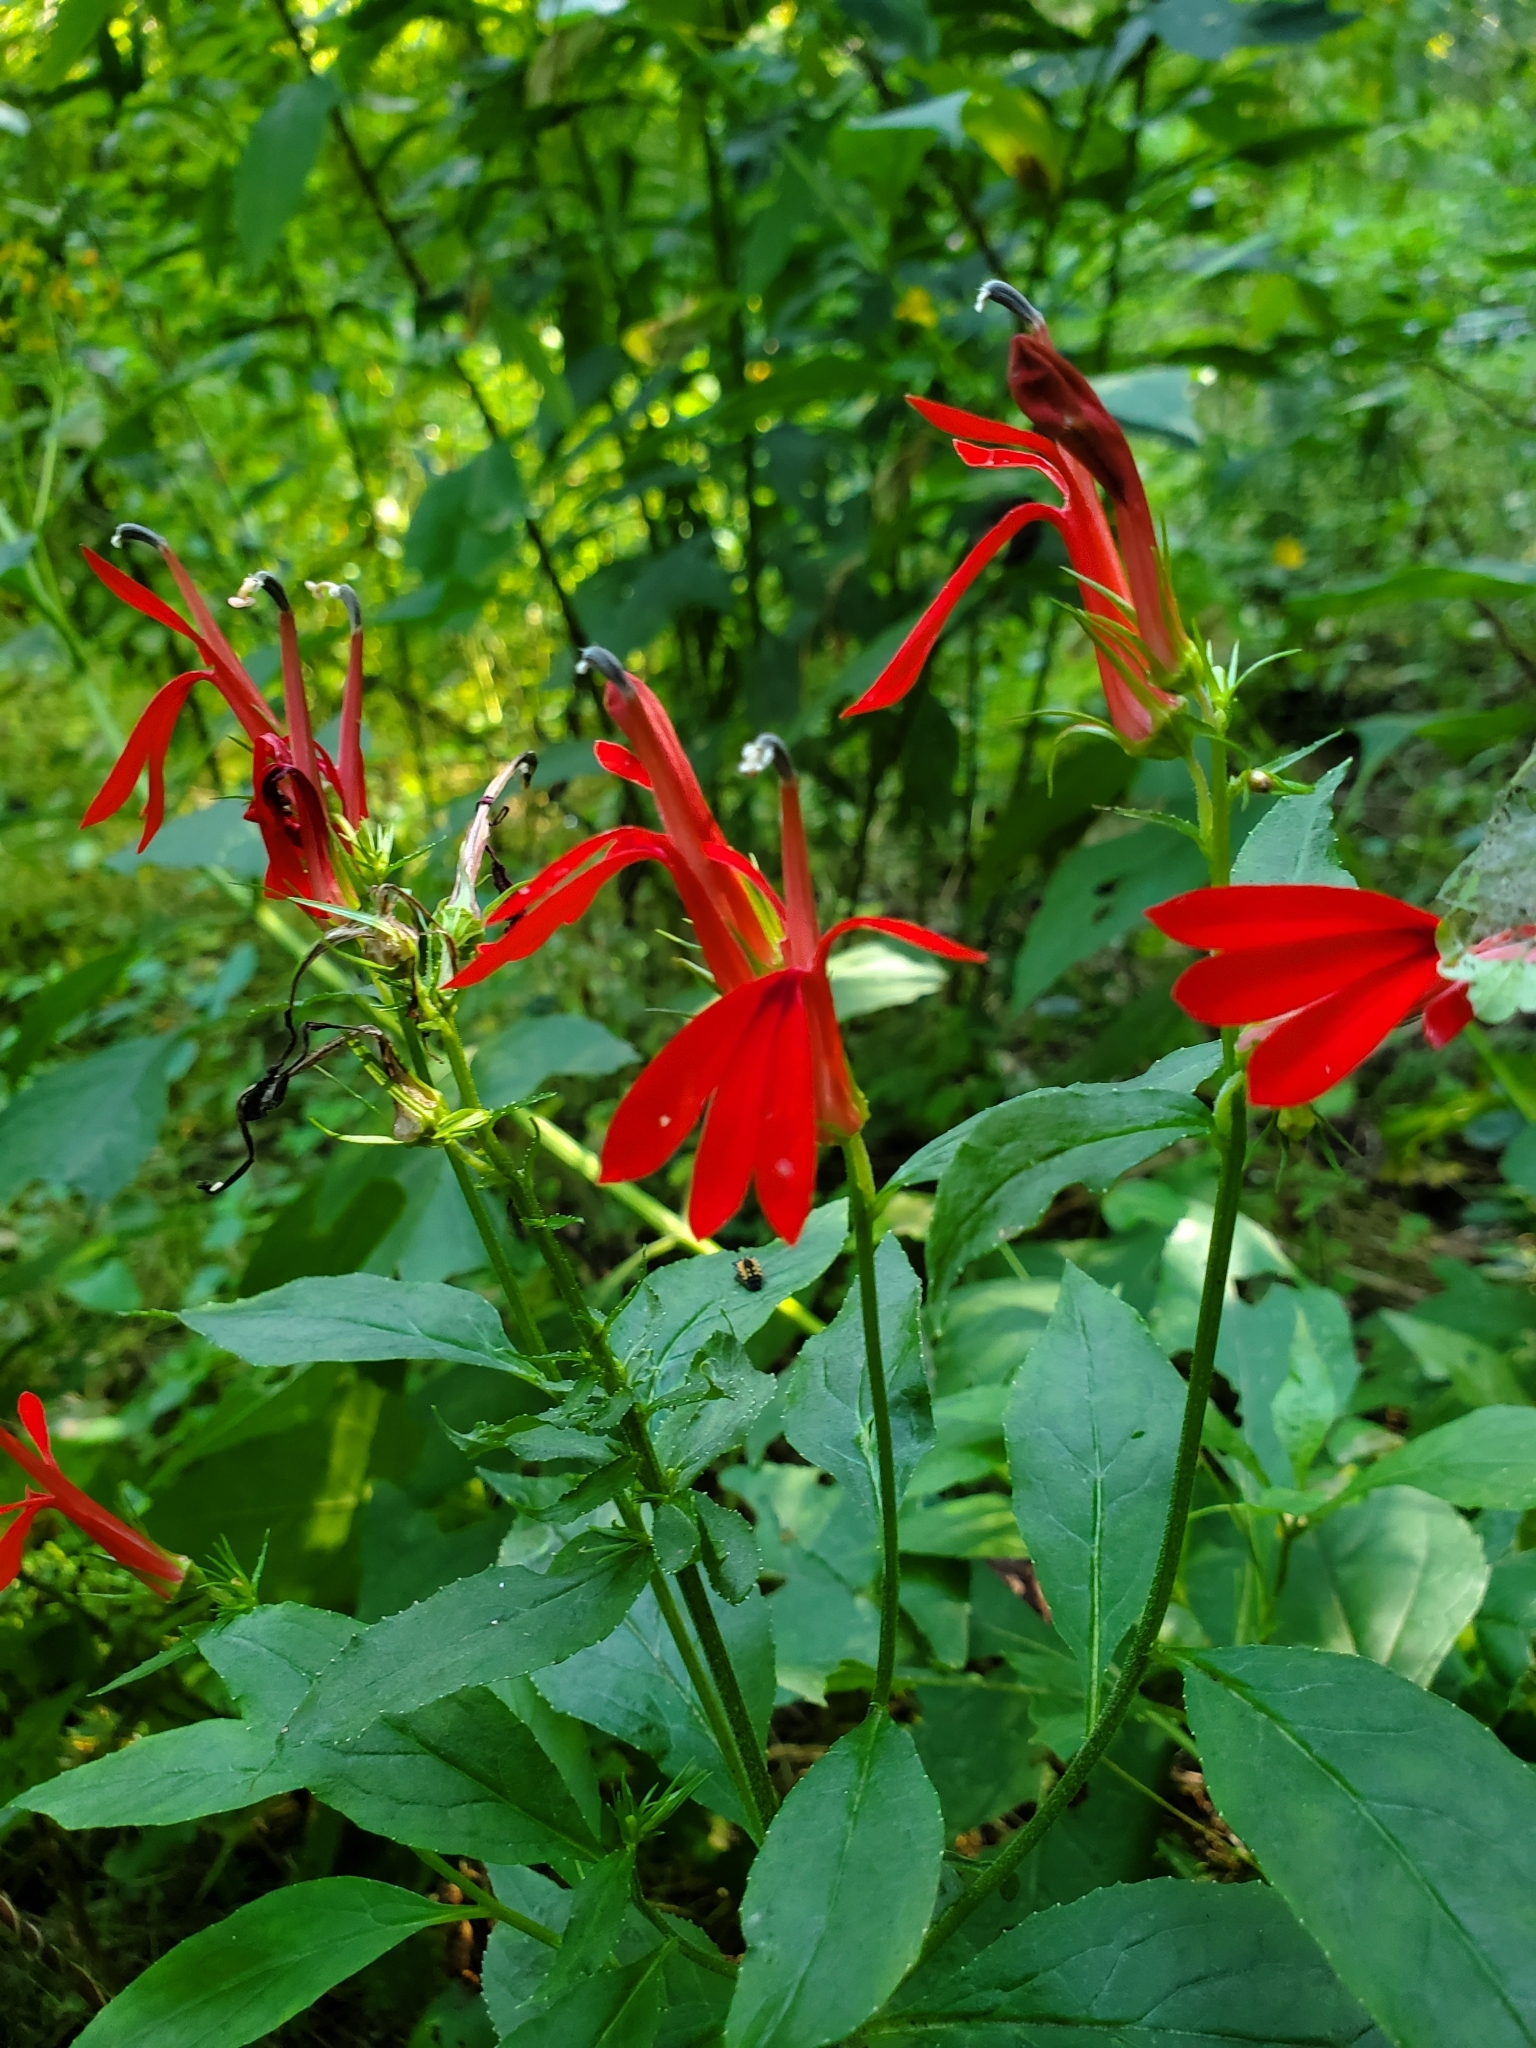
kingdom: Plantae
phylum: Tracheophyta
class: Magnoliopsida
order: Asterales
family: Campanulaceae
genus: Lobelia
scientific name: Lobelia cardinalis
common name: Cardinal flower
